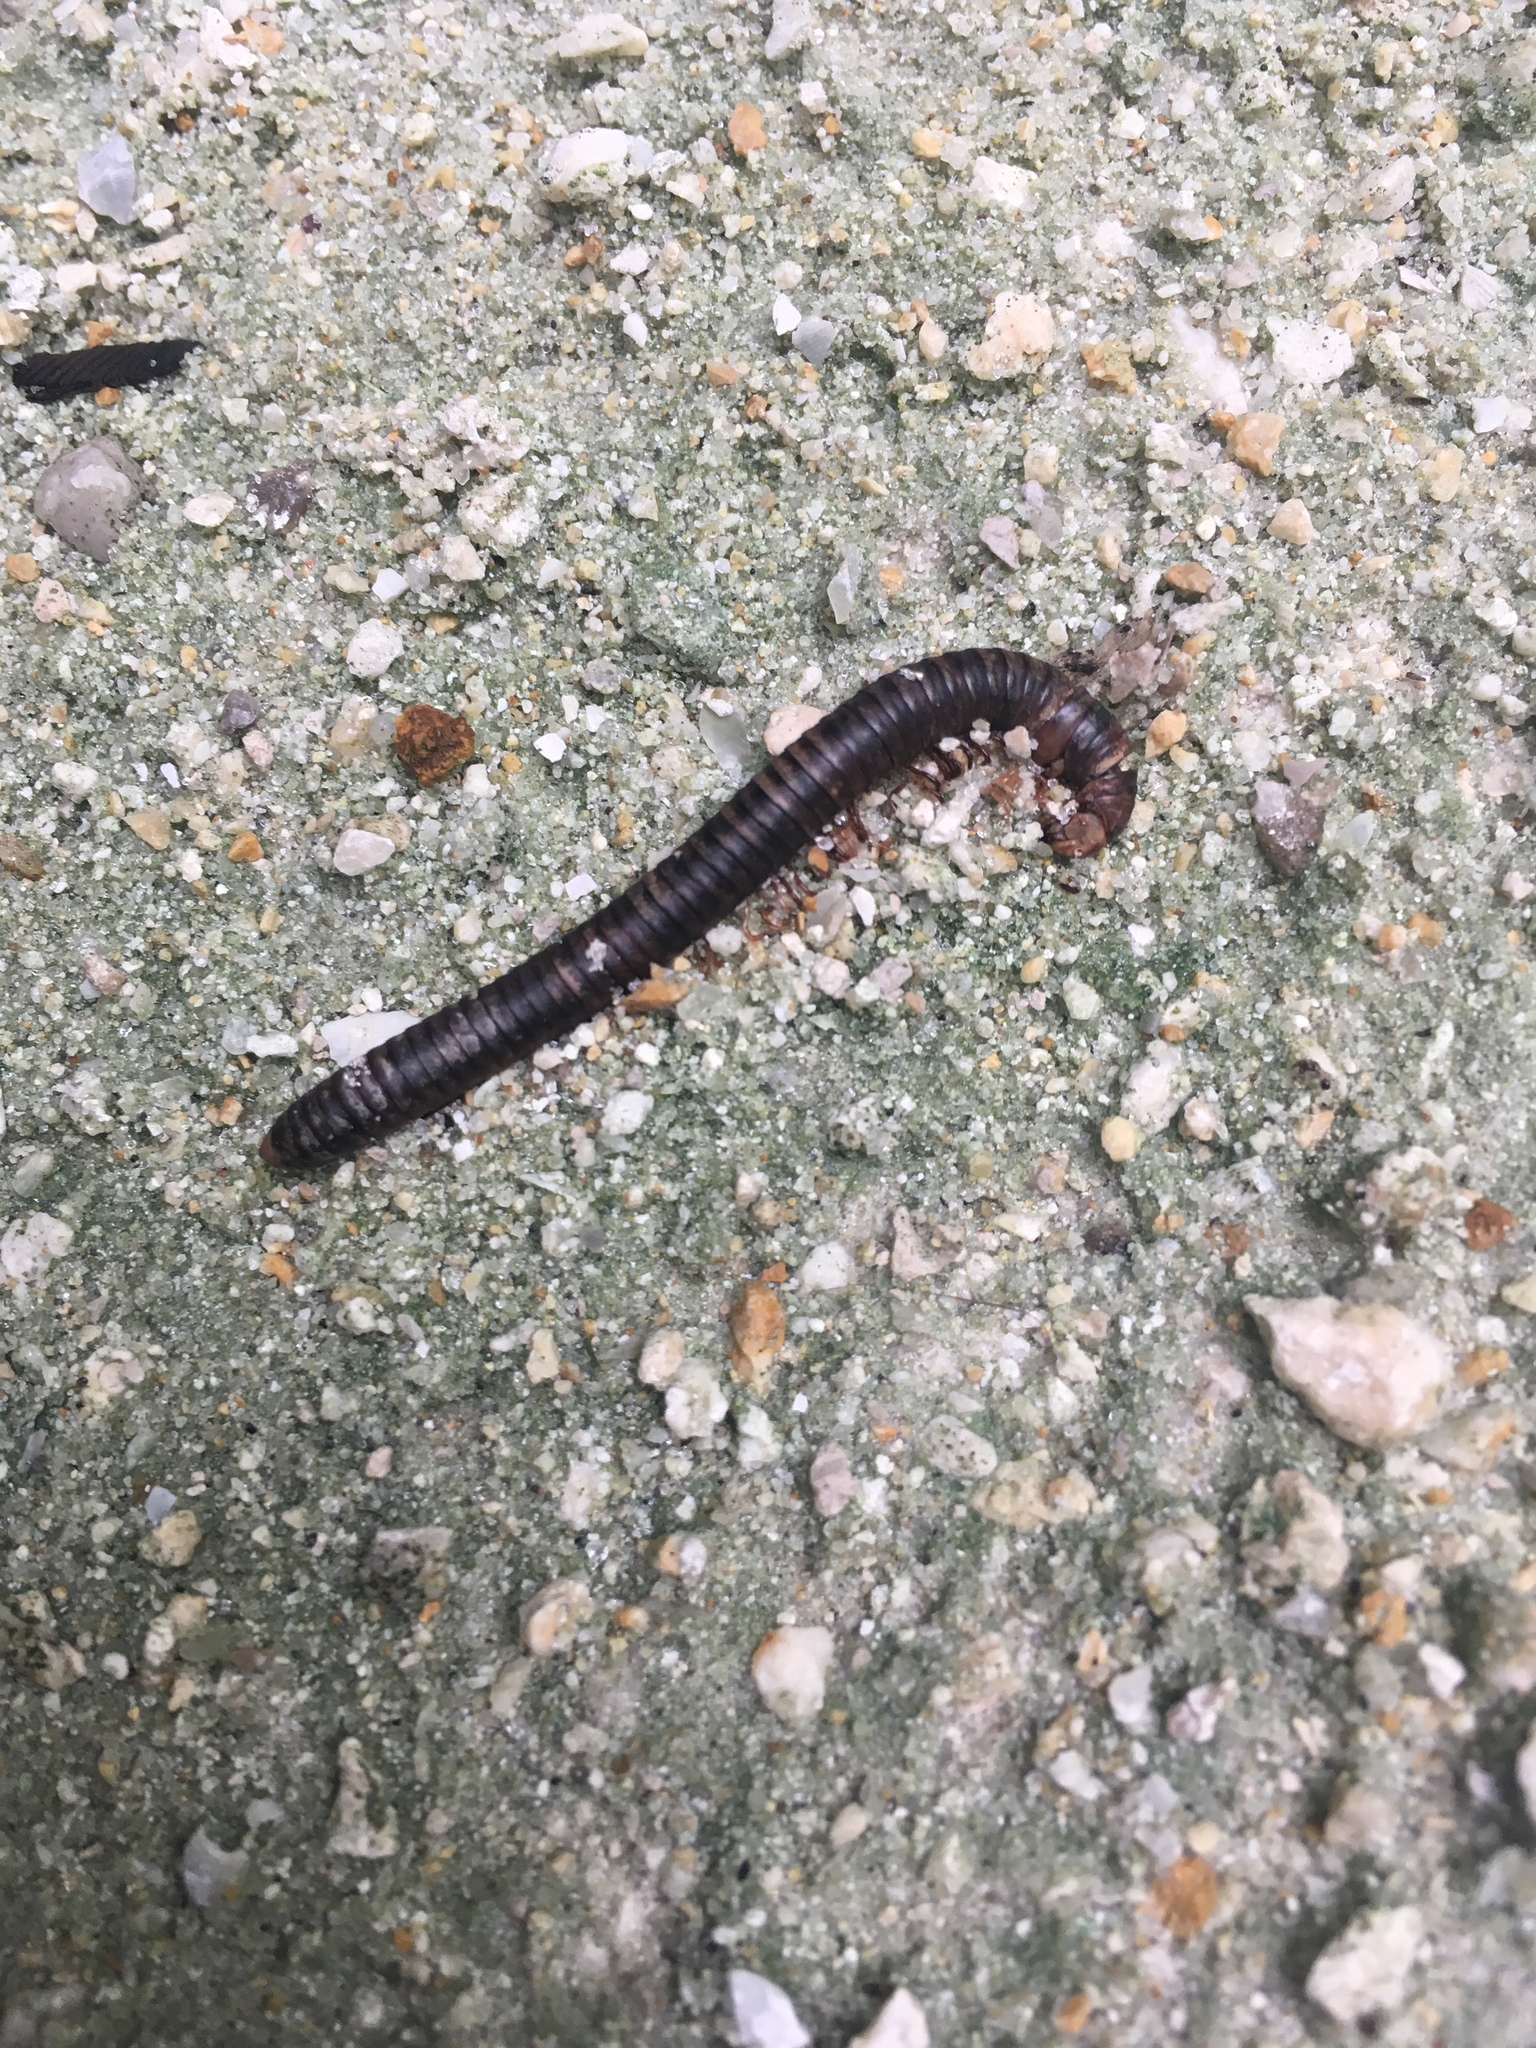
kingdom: Animalia
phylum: Arthropoda
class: Diplopoda
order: Spirobolida
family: Pachybolidae
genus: Trigoniulus
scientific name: Trigoniulus corallinus
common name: Millipede
